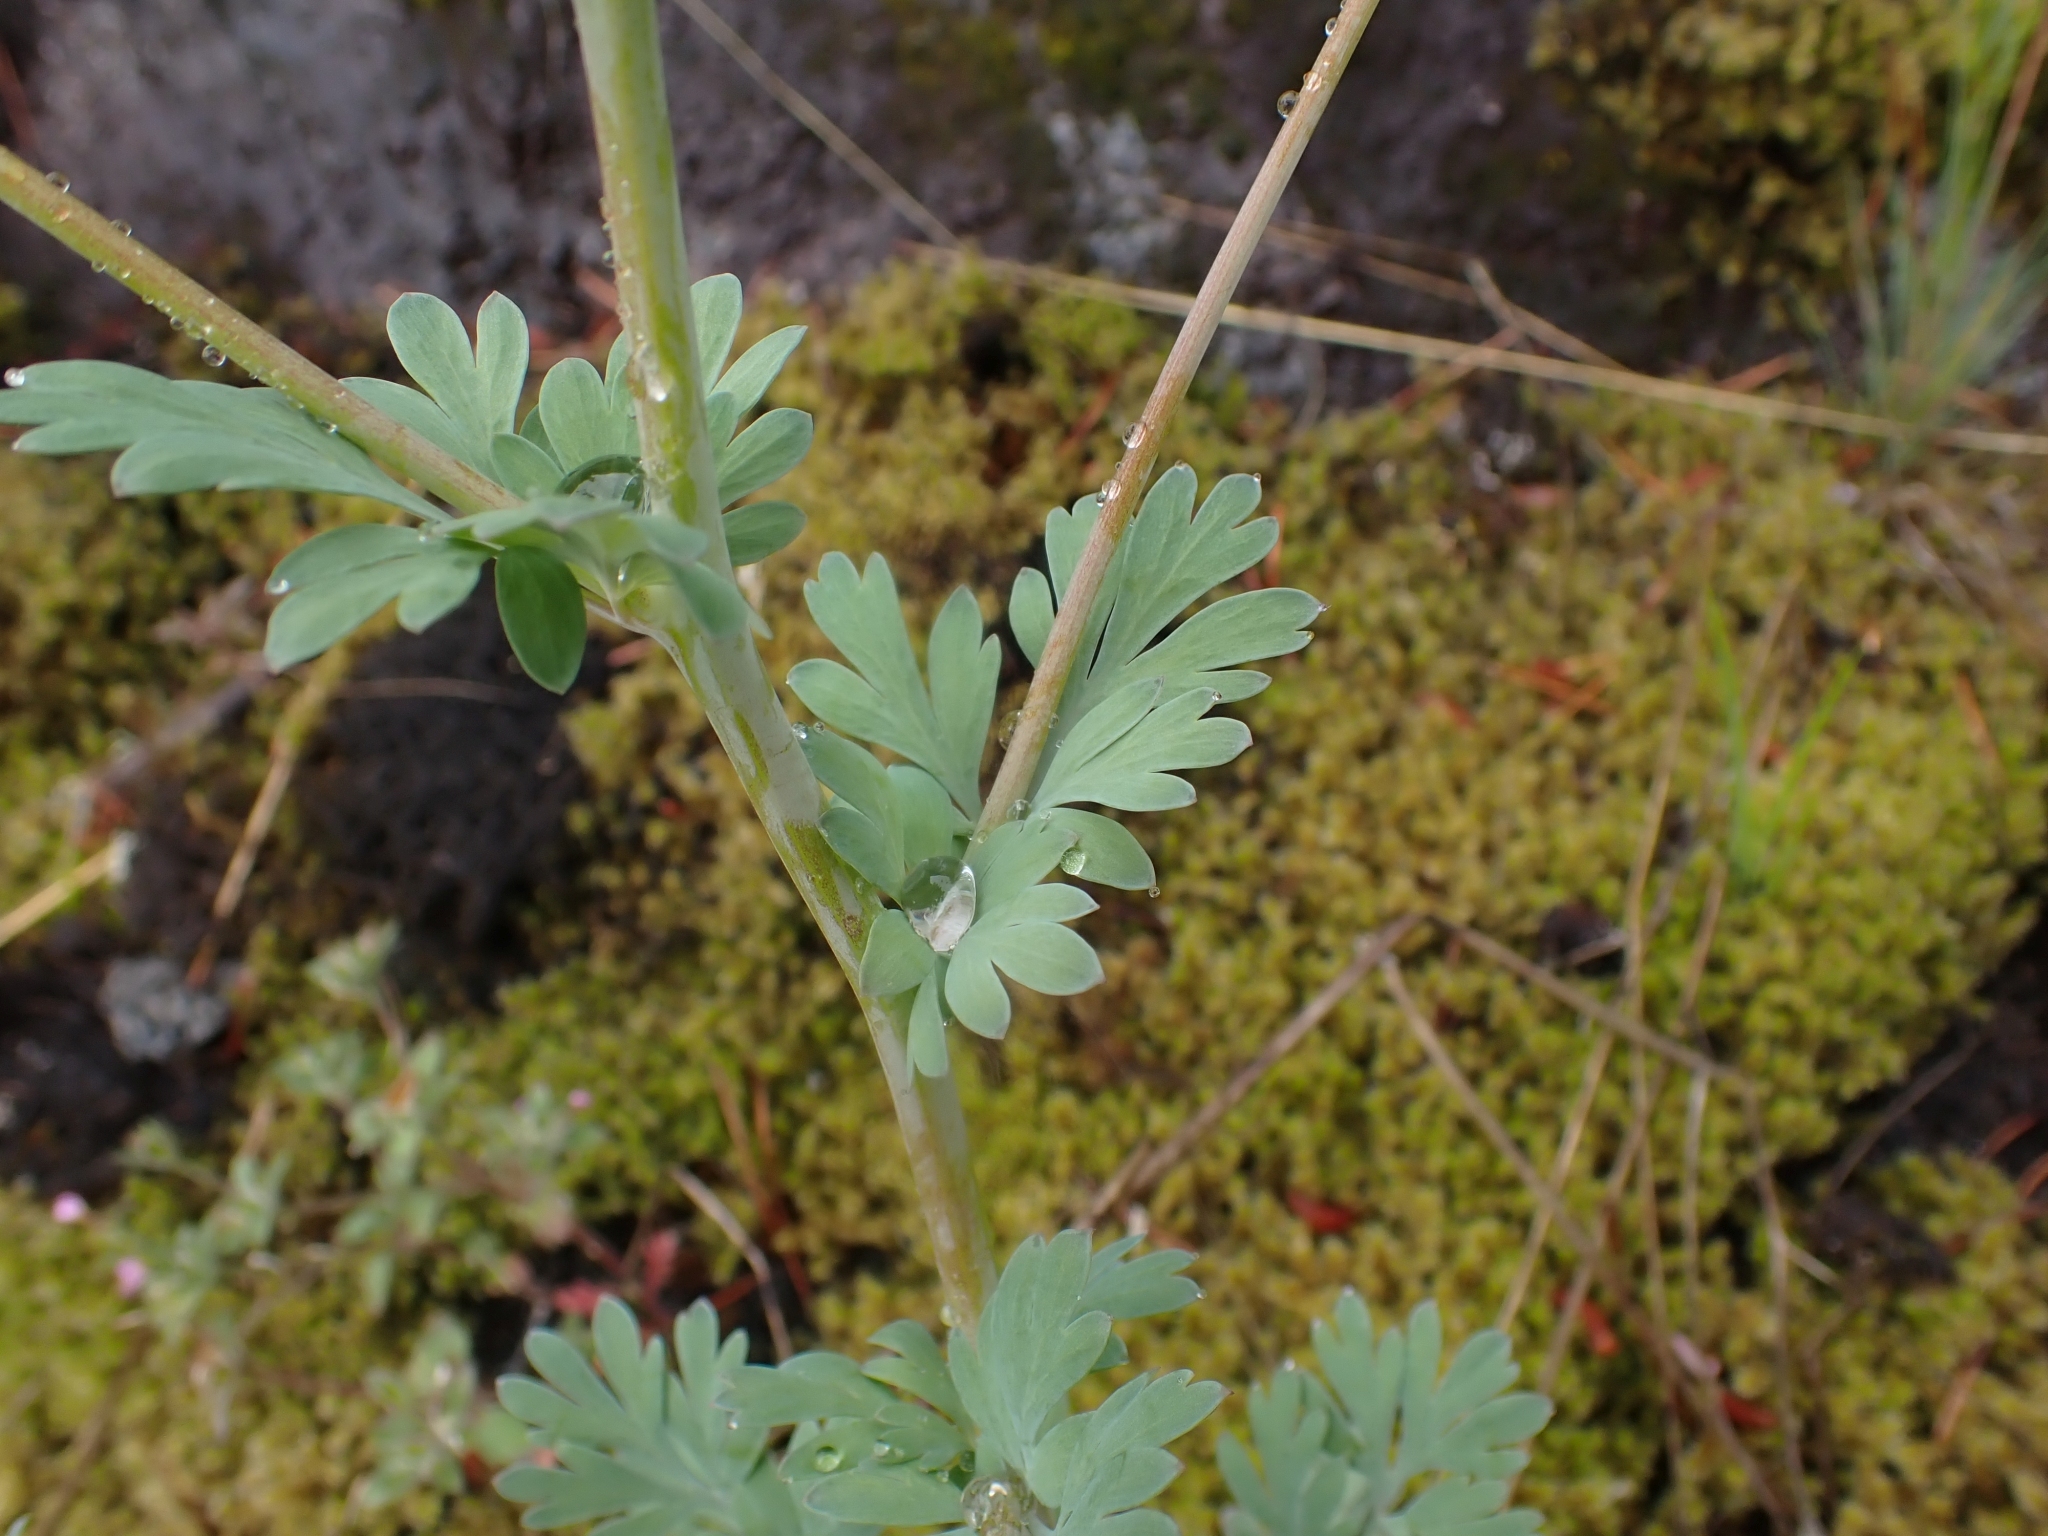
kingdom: Plantae
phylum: Tracheophyta
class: Magnoliopsida
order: Ranunculales
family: Papaveraceae
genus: Capnoides
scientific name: Capnoides sempervirens
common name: Rock harlequin
